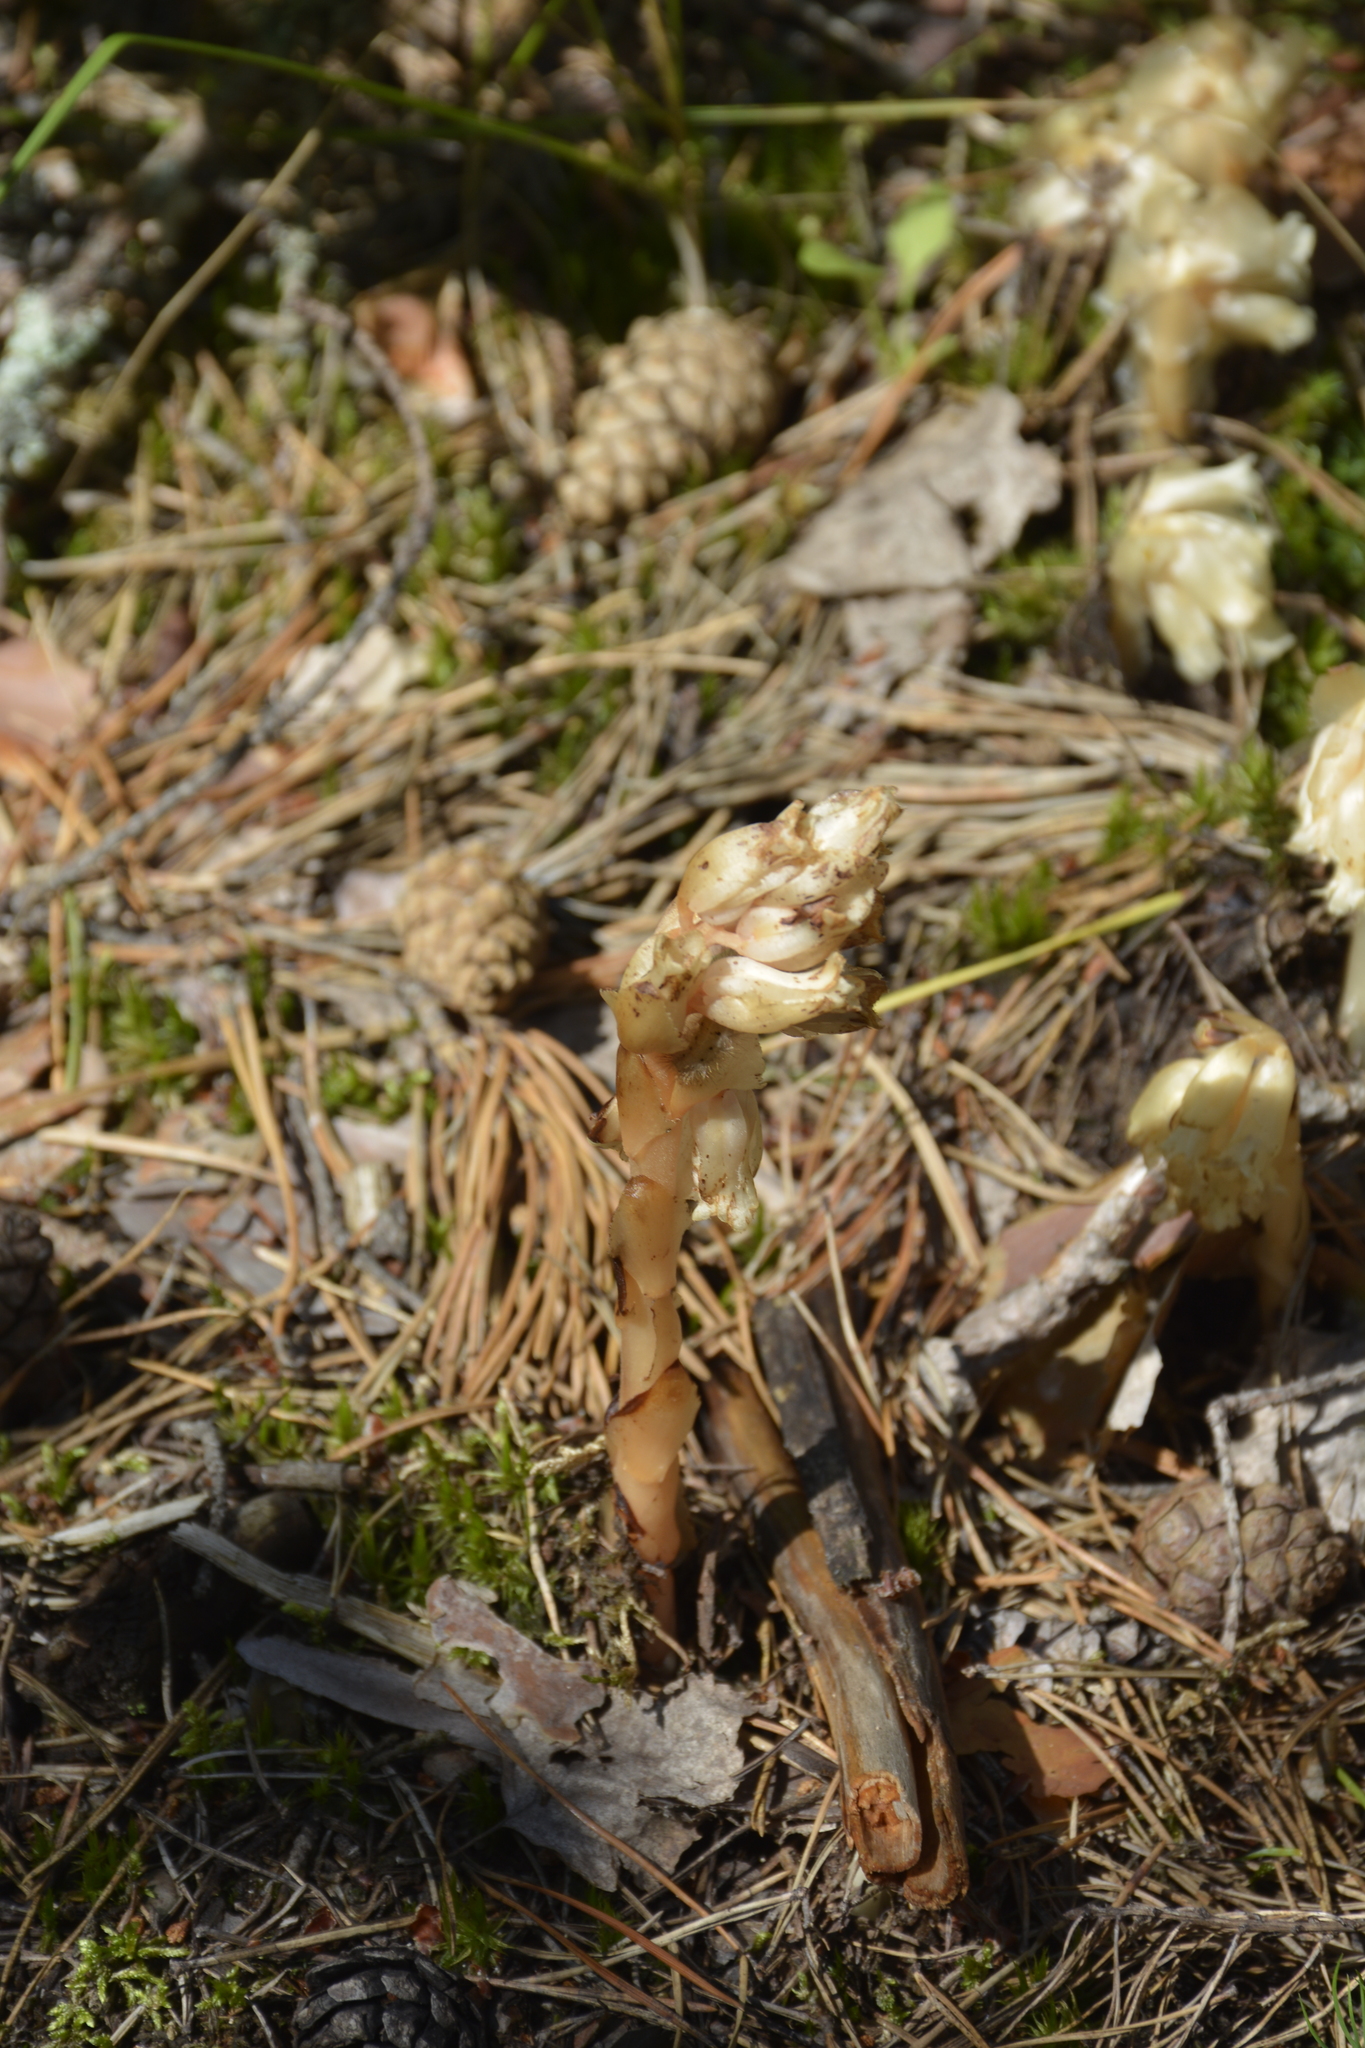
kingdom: Plantae
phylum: Tracheophyta
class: Magnoliopsida
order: Ericales
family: Ericaceae
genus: Hypopitys
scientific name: Hypopitys monotropa
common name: Yellow bird's-nest
